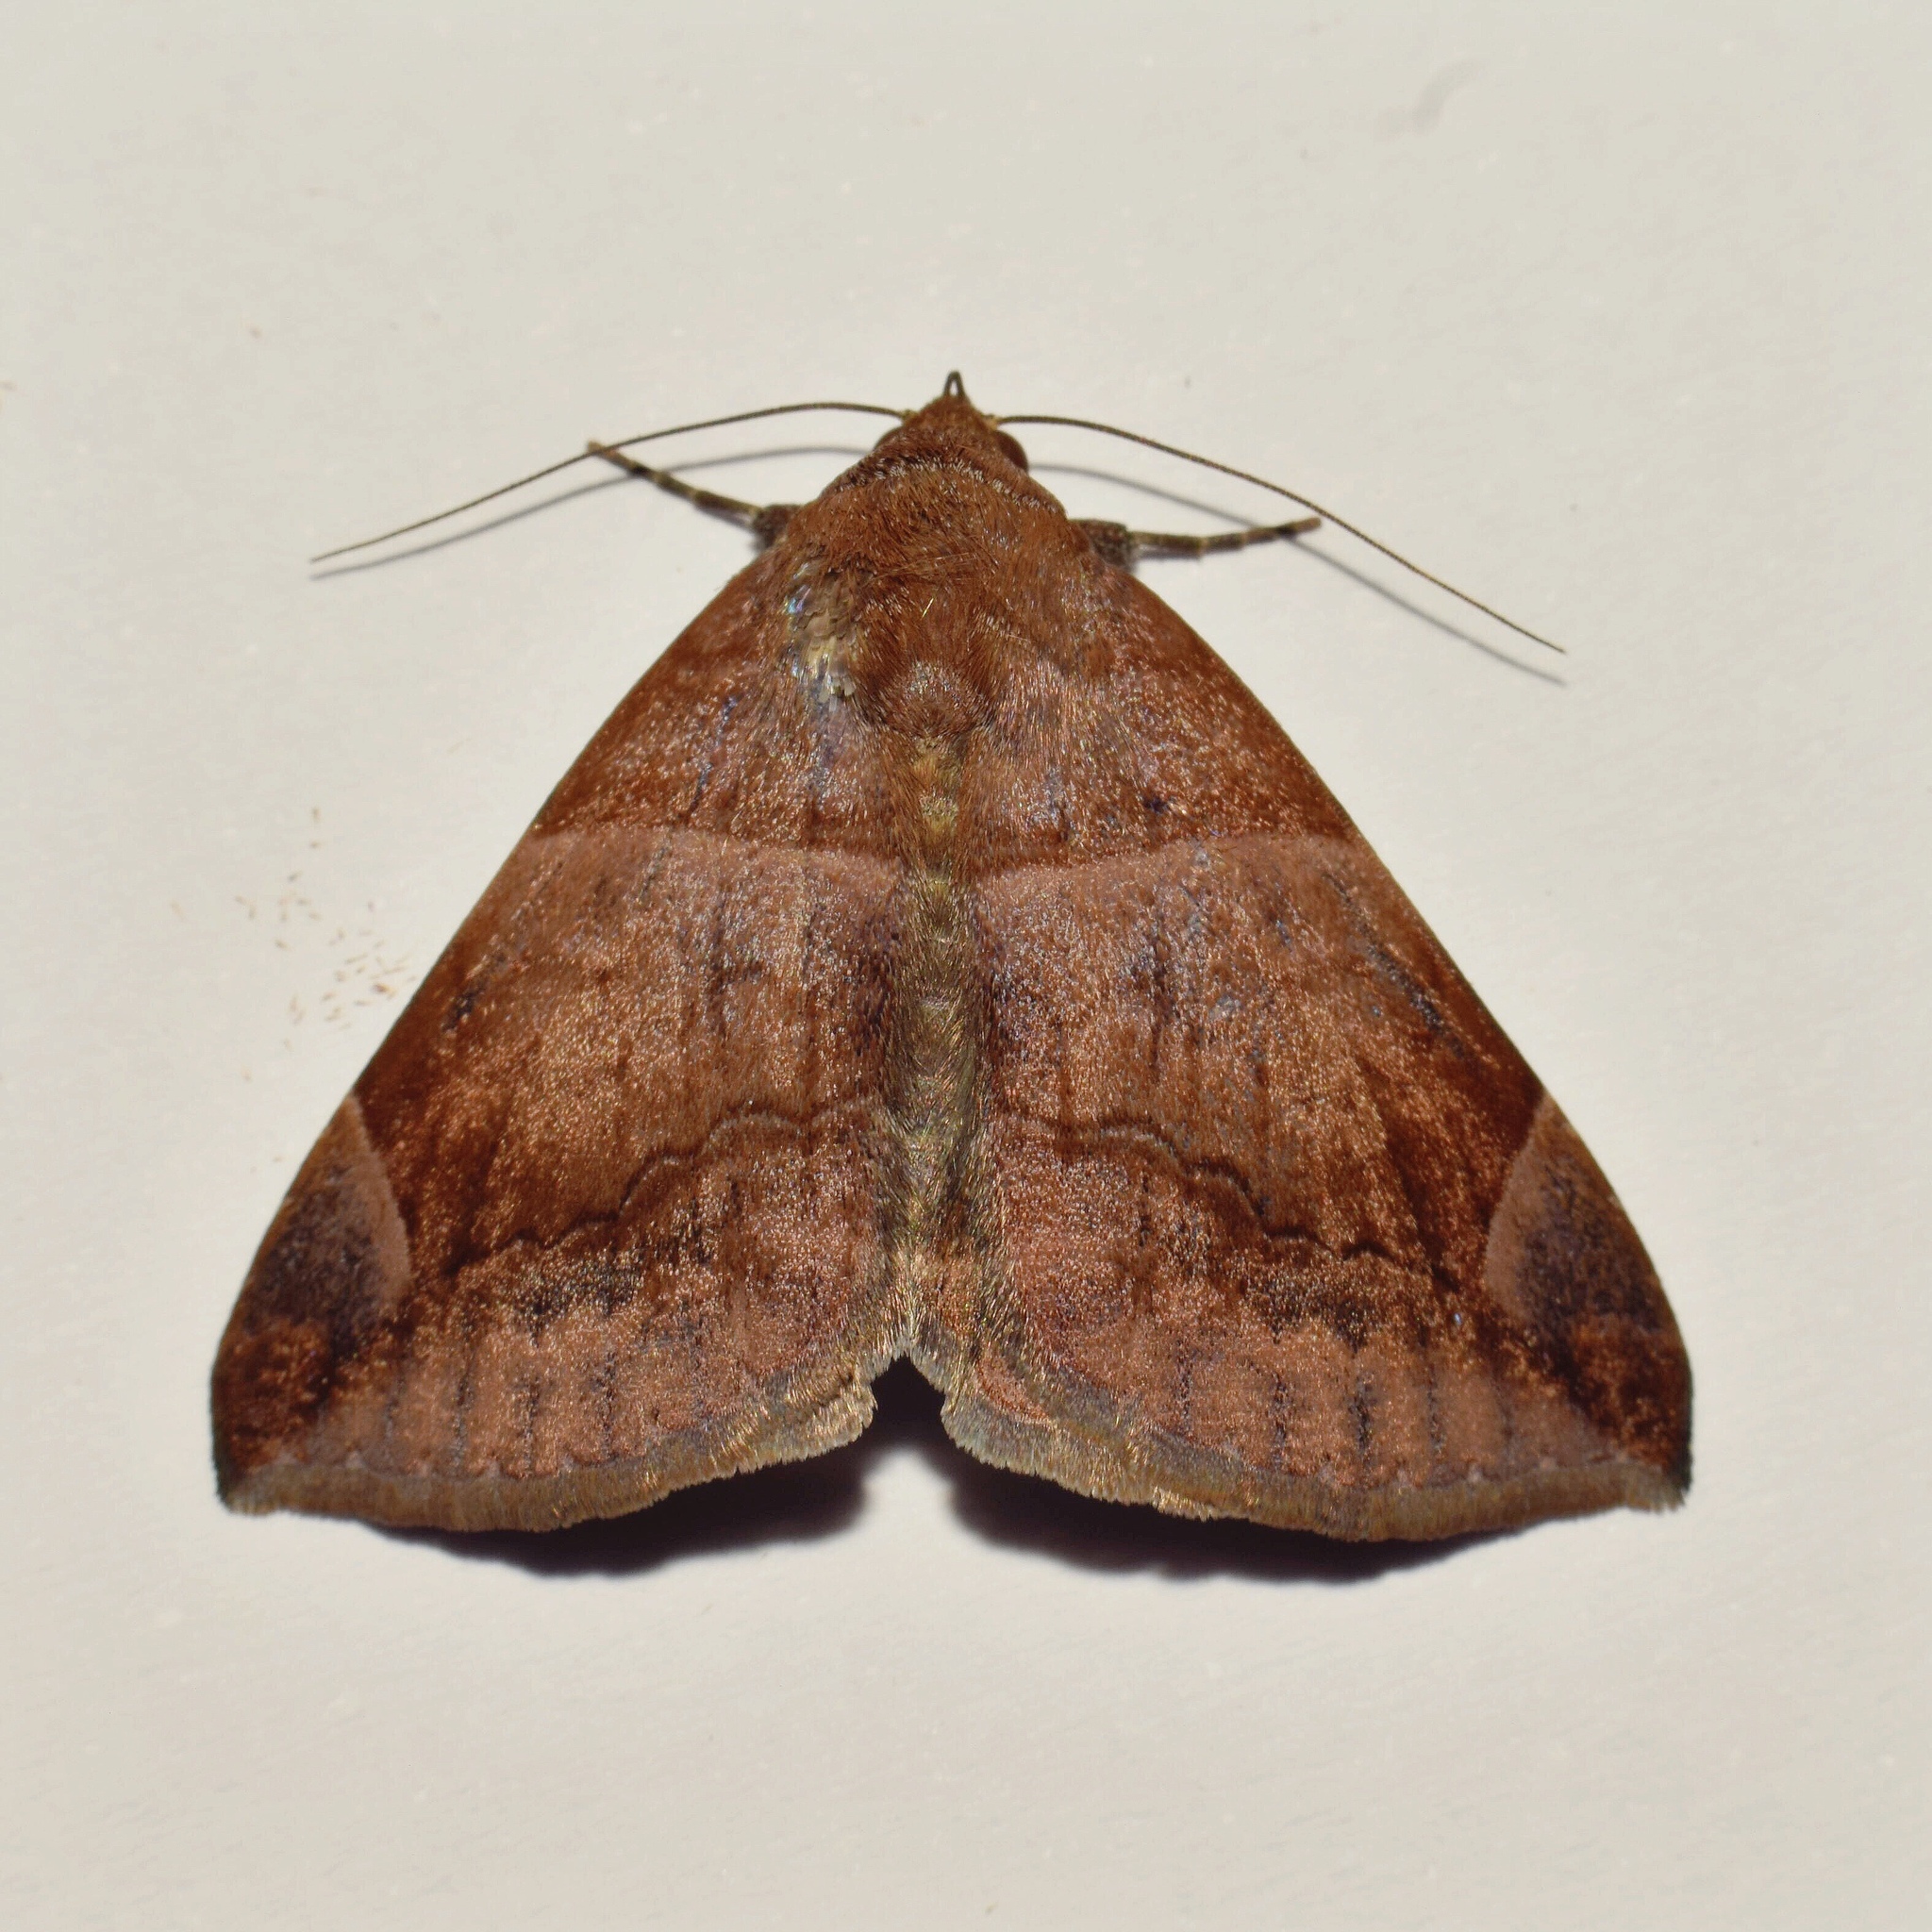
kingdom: Animalia
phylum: Arthropoda
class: Insecta
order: Lepidoptera
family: Erebidae
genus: Parallelia
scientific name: Parallelia proxima
